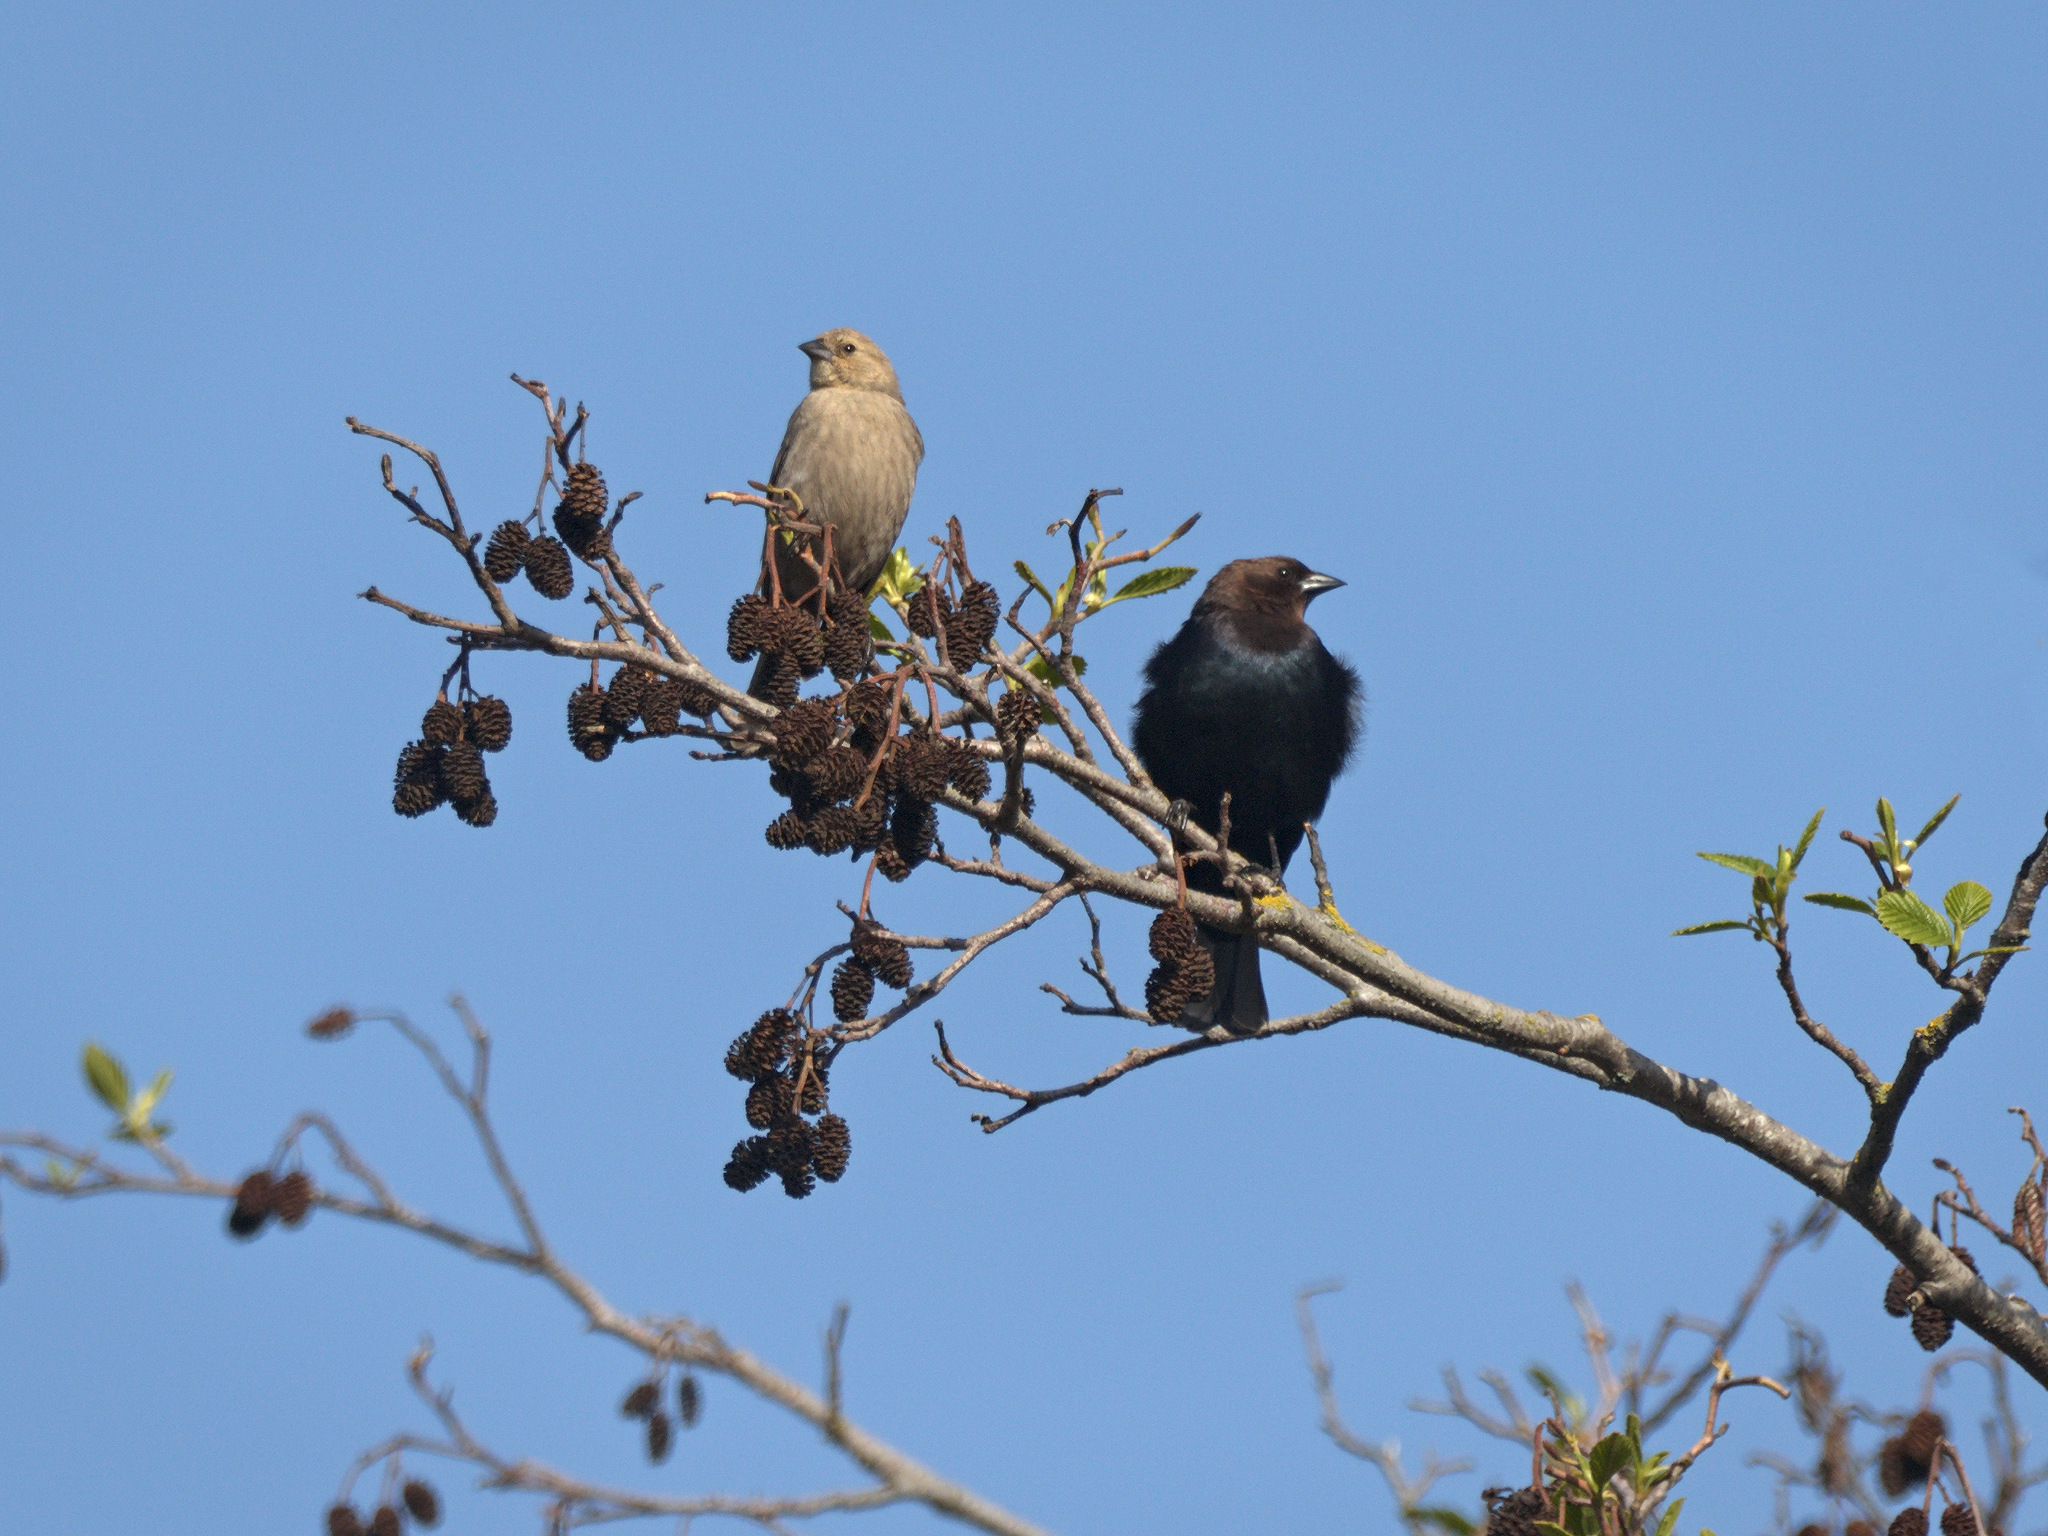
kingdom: Animalia
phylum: Chordata
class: Aves
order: Passeriformes
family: Icteridae
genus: Molothrus
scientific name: Molothrus ater
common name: Brown-headed cowbird
